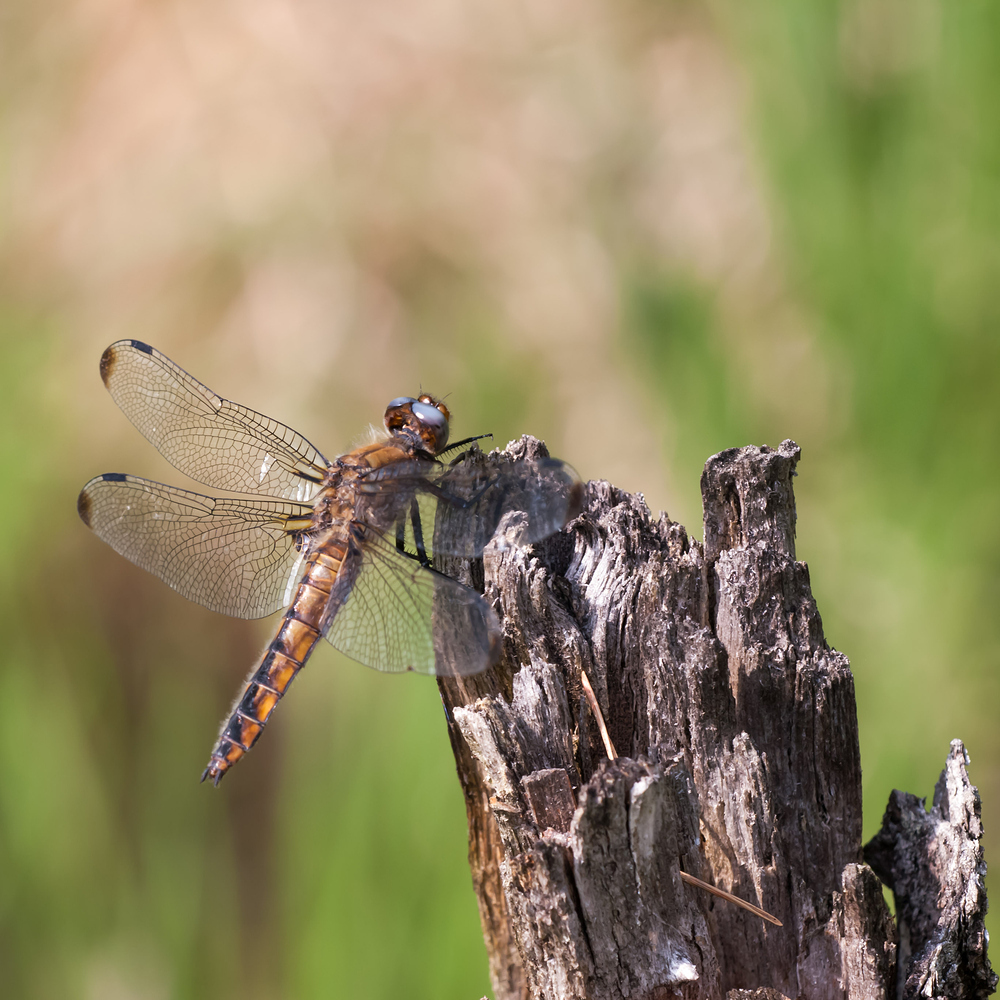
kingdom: Animalia
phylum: Arthropoda
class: Insecta
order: Odonata
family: Libellulidae
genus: Libellula
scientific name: Libellula fulva
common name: Blue chaser
